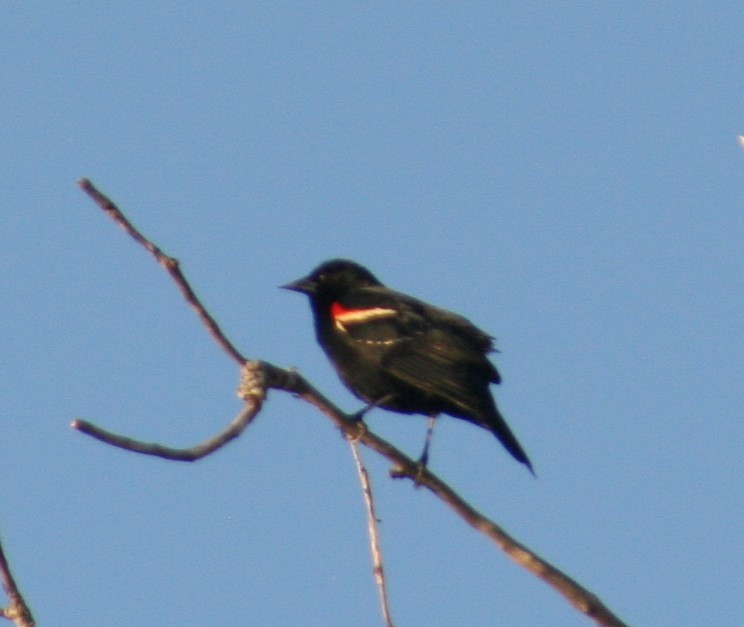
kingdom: Animalia
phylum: Chordata
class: Aves
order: Passeriformes
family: Icteridae
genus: Agelaius
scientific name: Agelaius phoeniceus
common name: Red-winged blackbird
